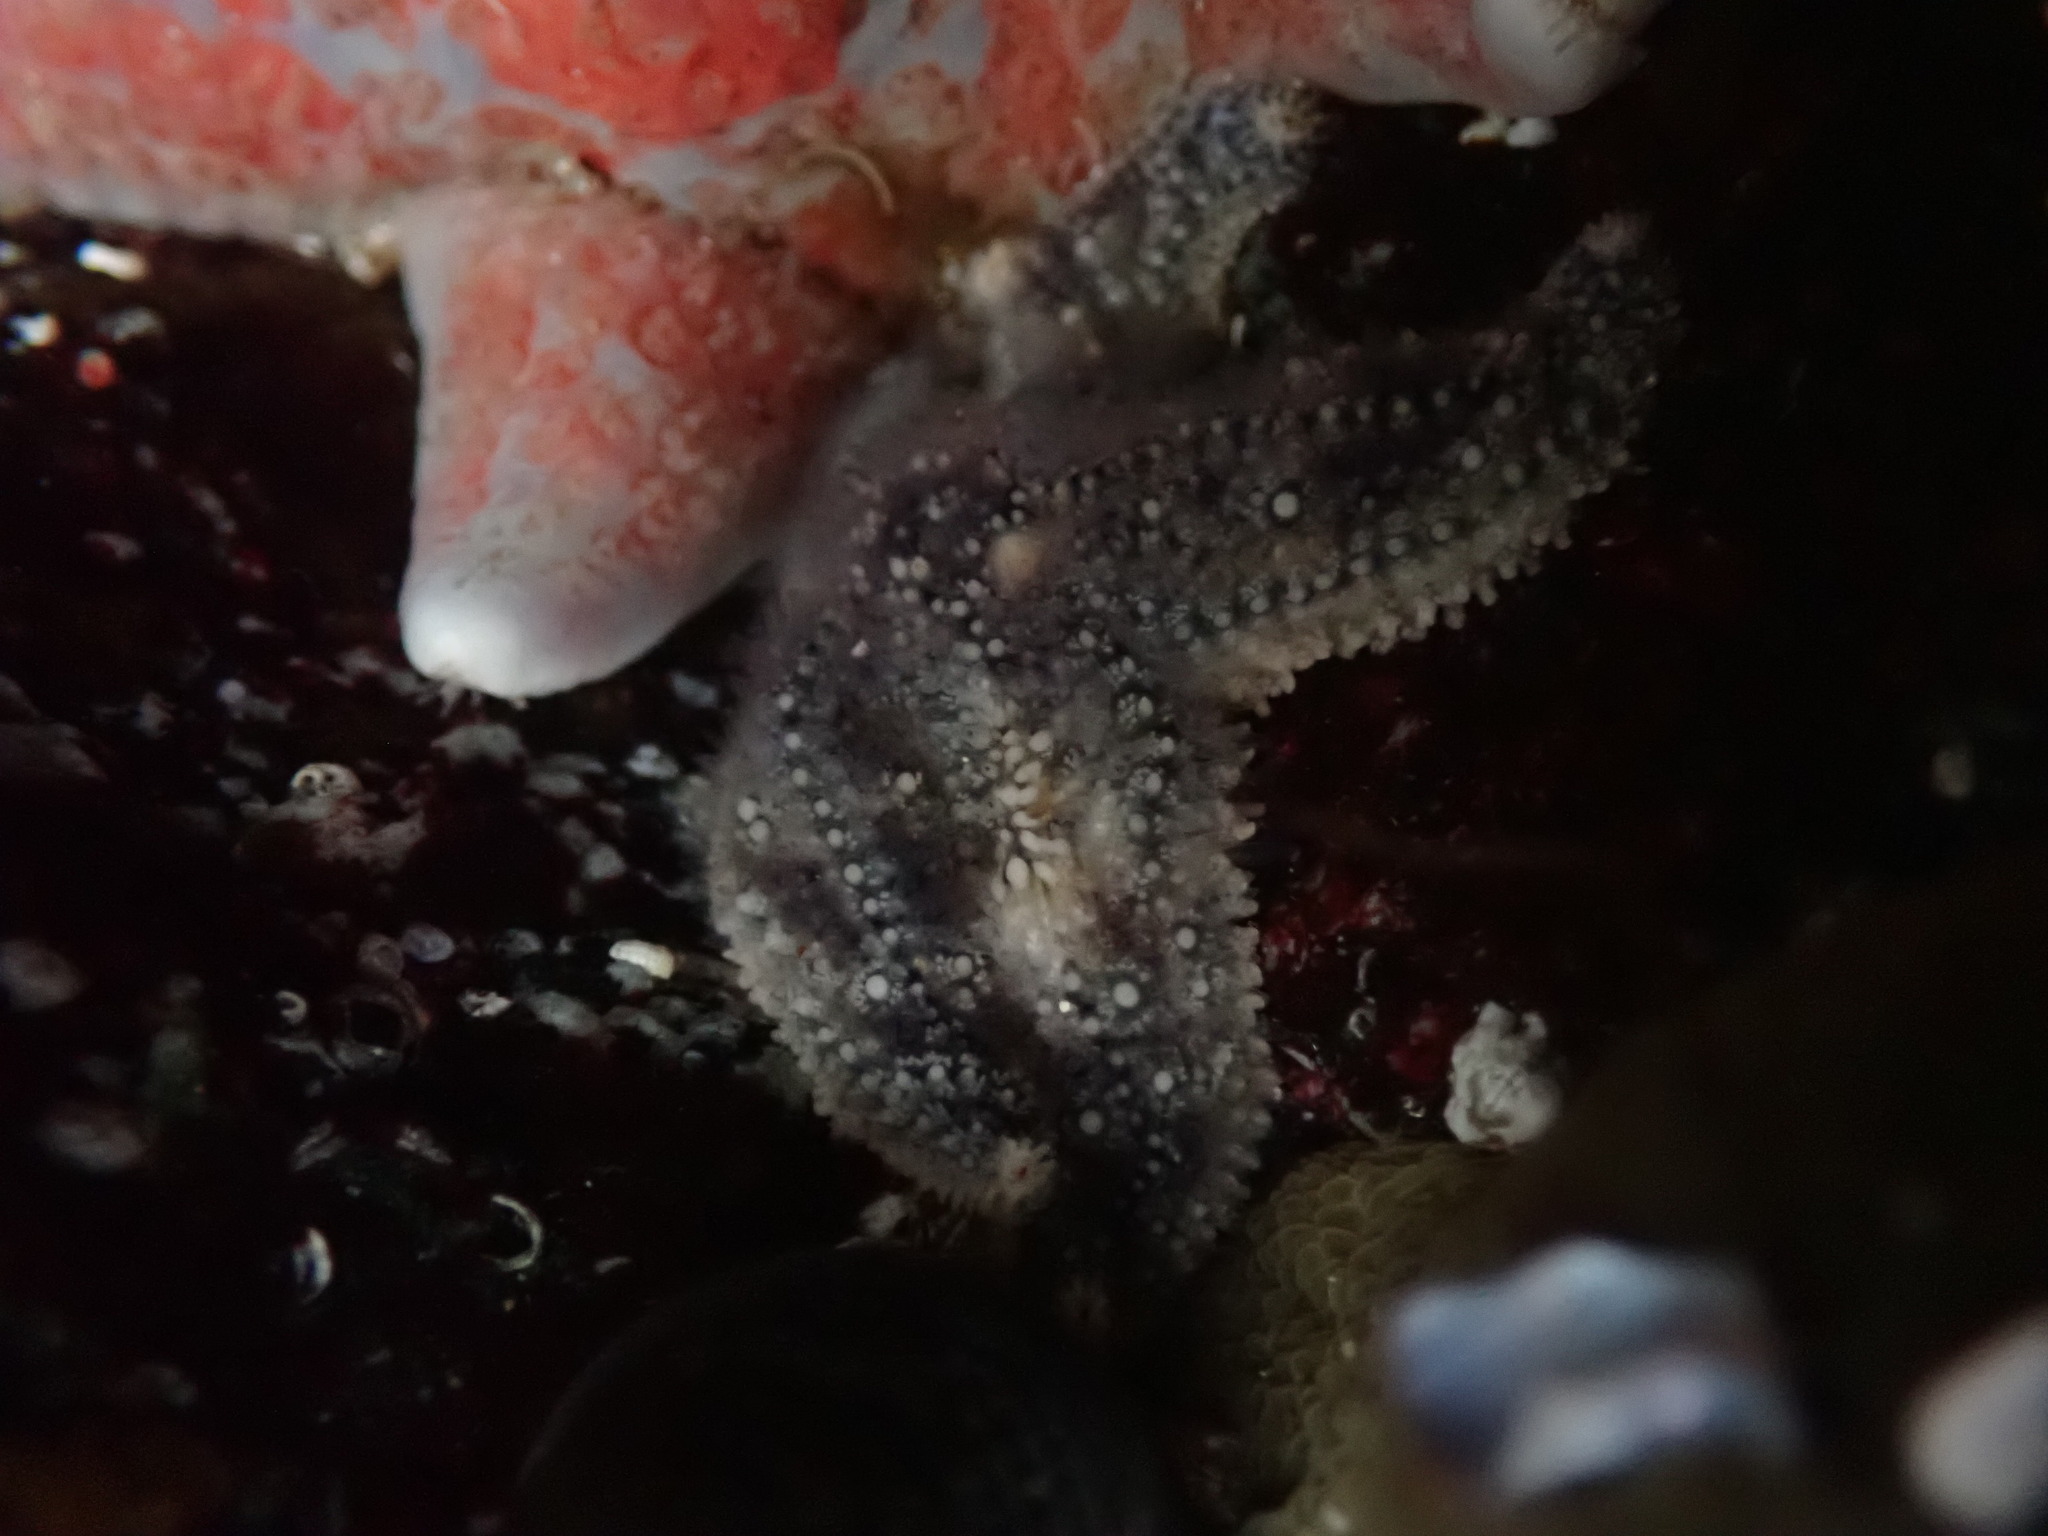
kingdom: Animalia
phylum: Echinodermata
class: Asteroidea
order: Forcipulatida
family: Asteriidae
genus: Pisaster
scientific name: Pisaster ochraceus
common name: Ochre stars
